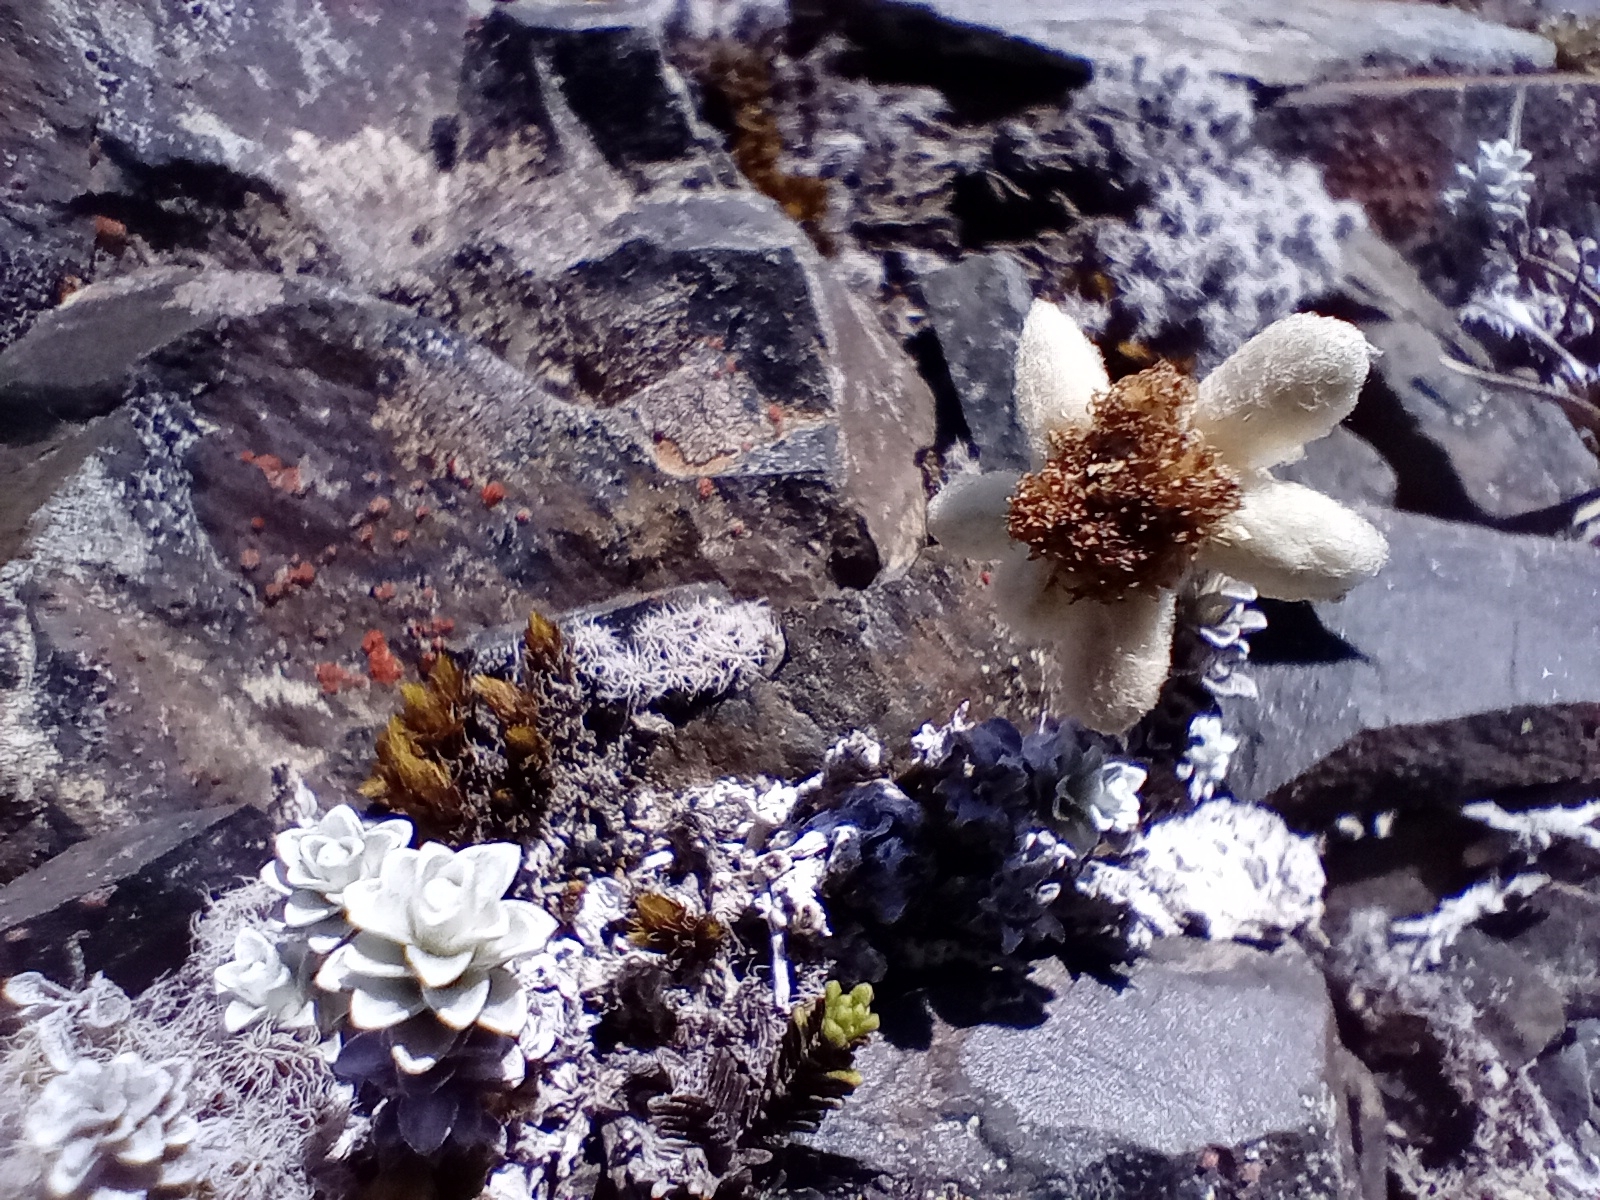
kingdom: Plantae
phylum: Tracheophyta
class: Magnoliopsida
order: Asterales
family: Asteraceae
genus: Leucogenes
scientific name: Leucogenes grandiceps
